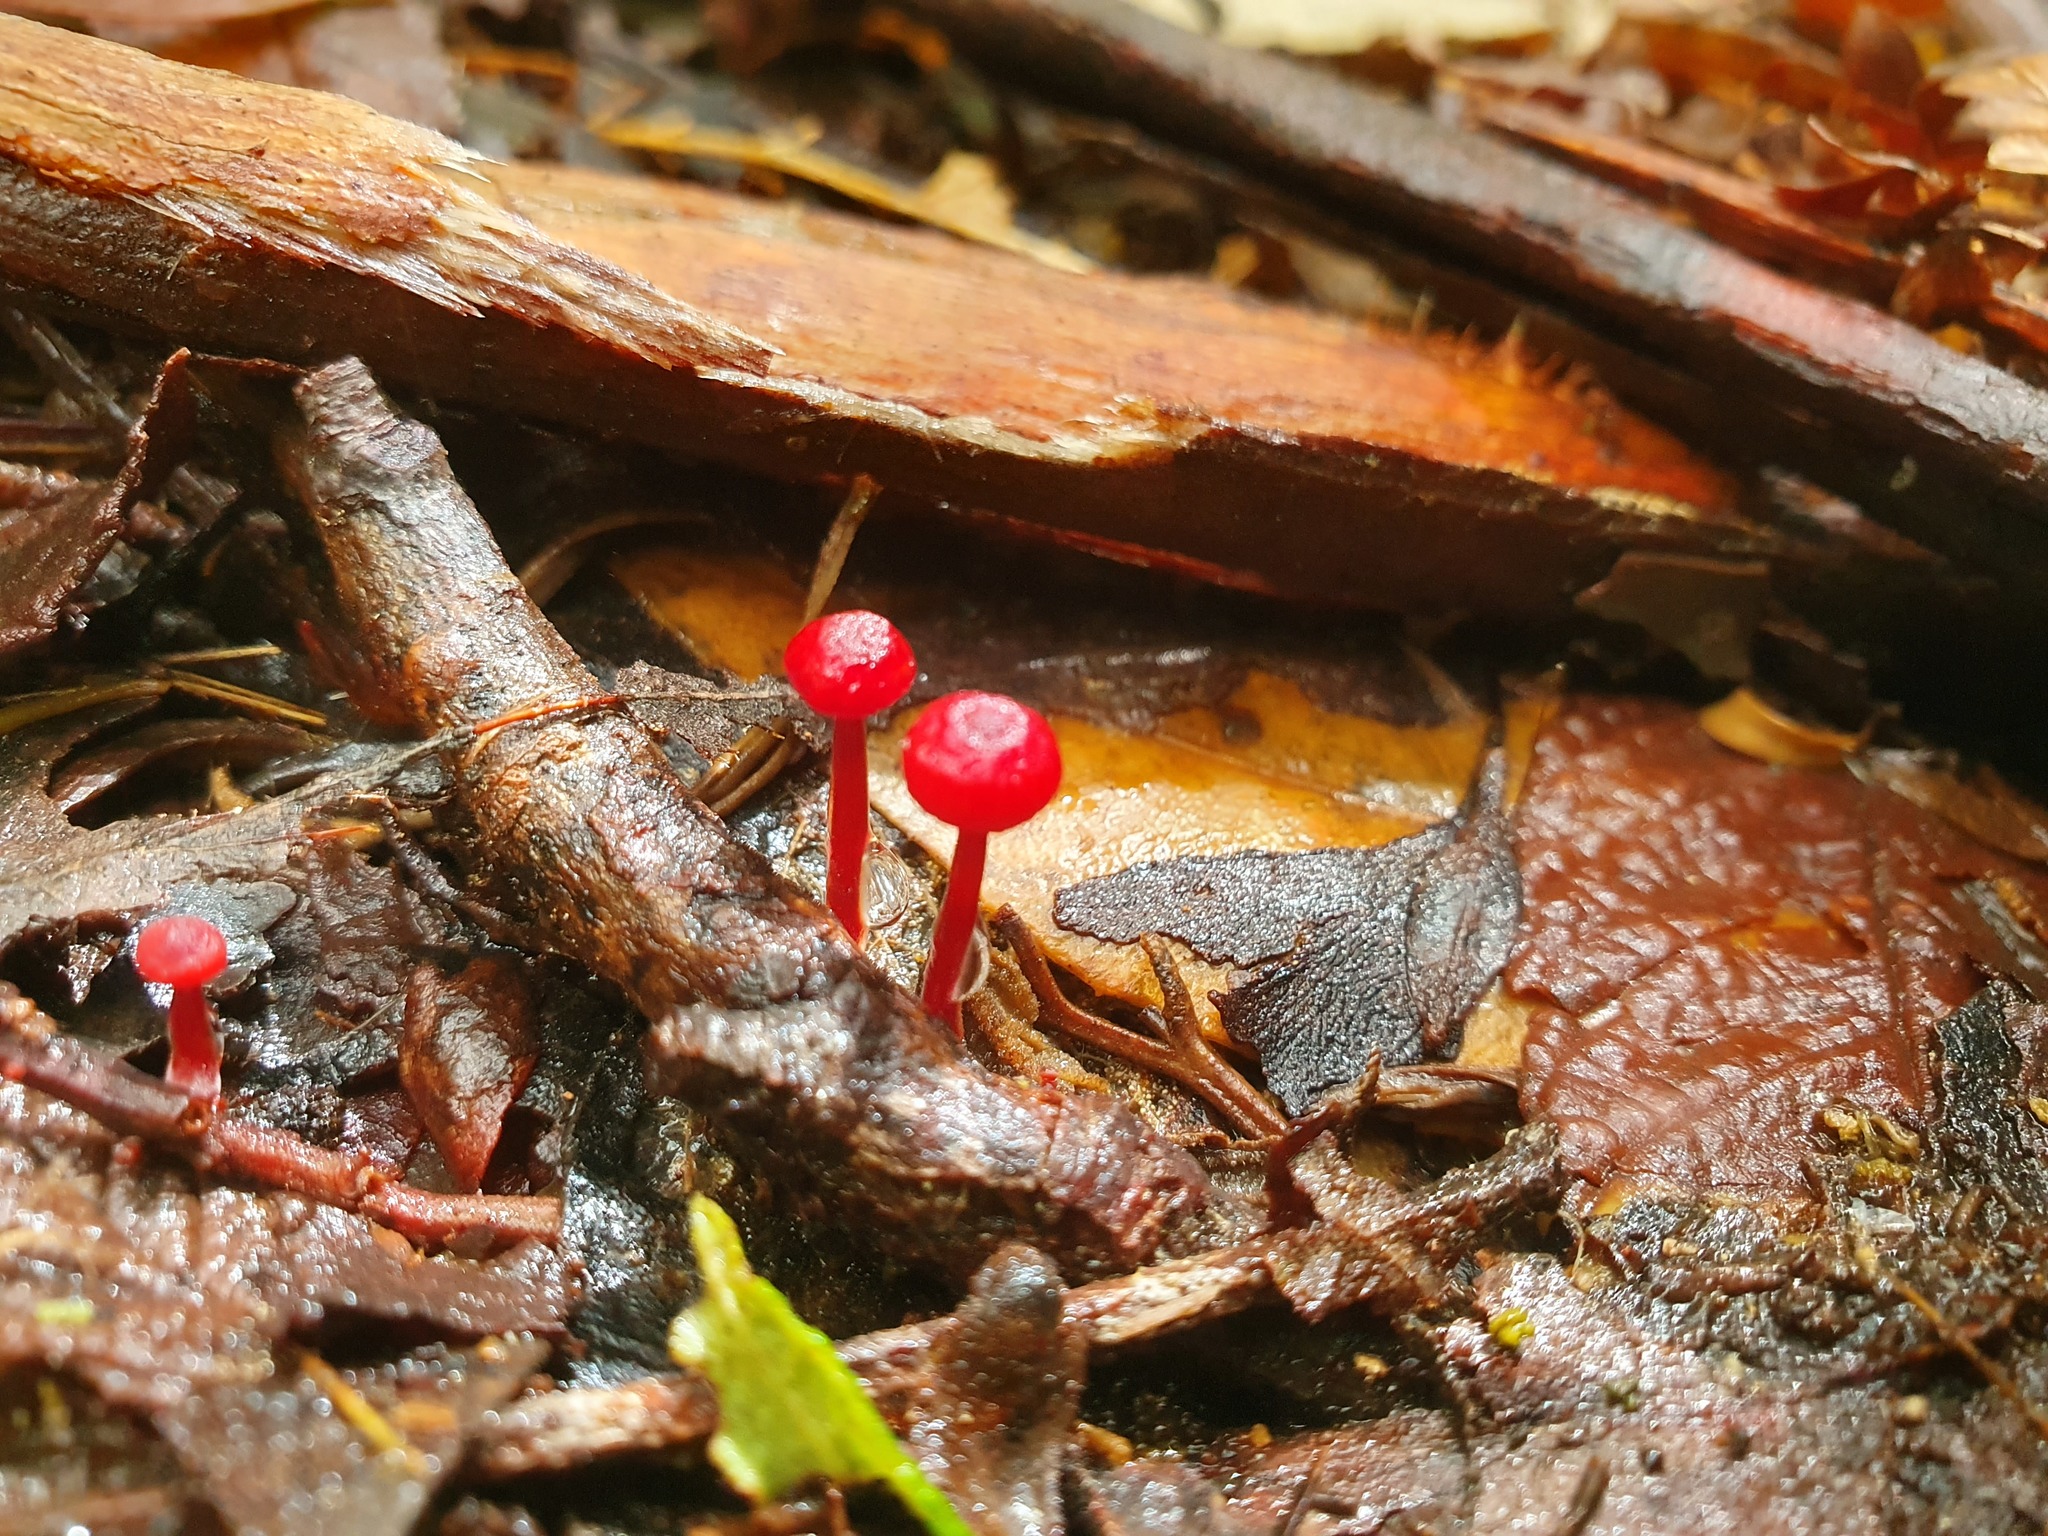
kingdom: Fungi
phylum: Basidiomycota
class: Agaricomycetes
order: Agaricales
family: Mycenaceae
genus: Cruentomycena
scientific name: Cruentomycena viscidocruenta
